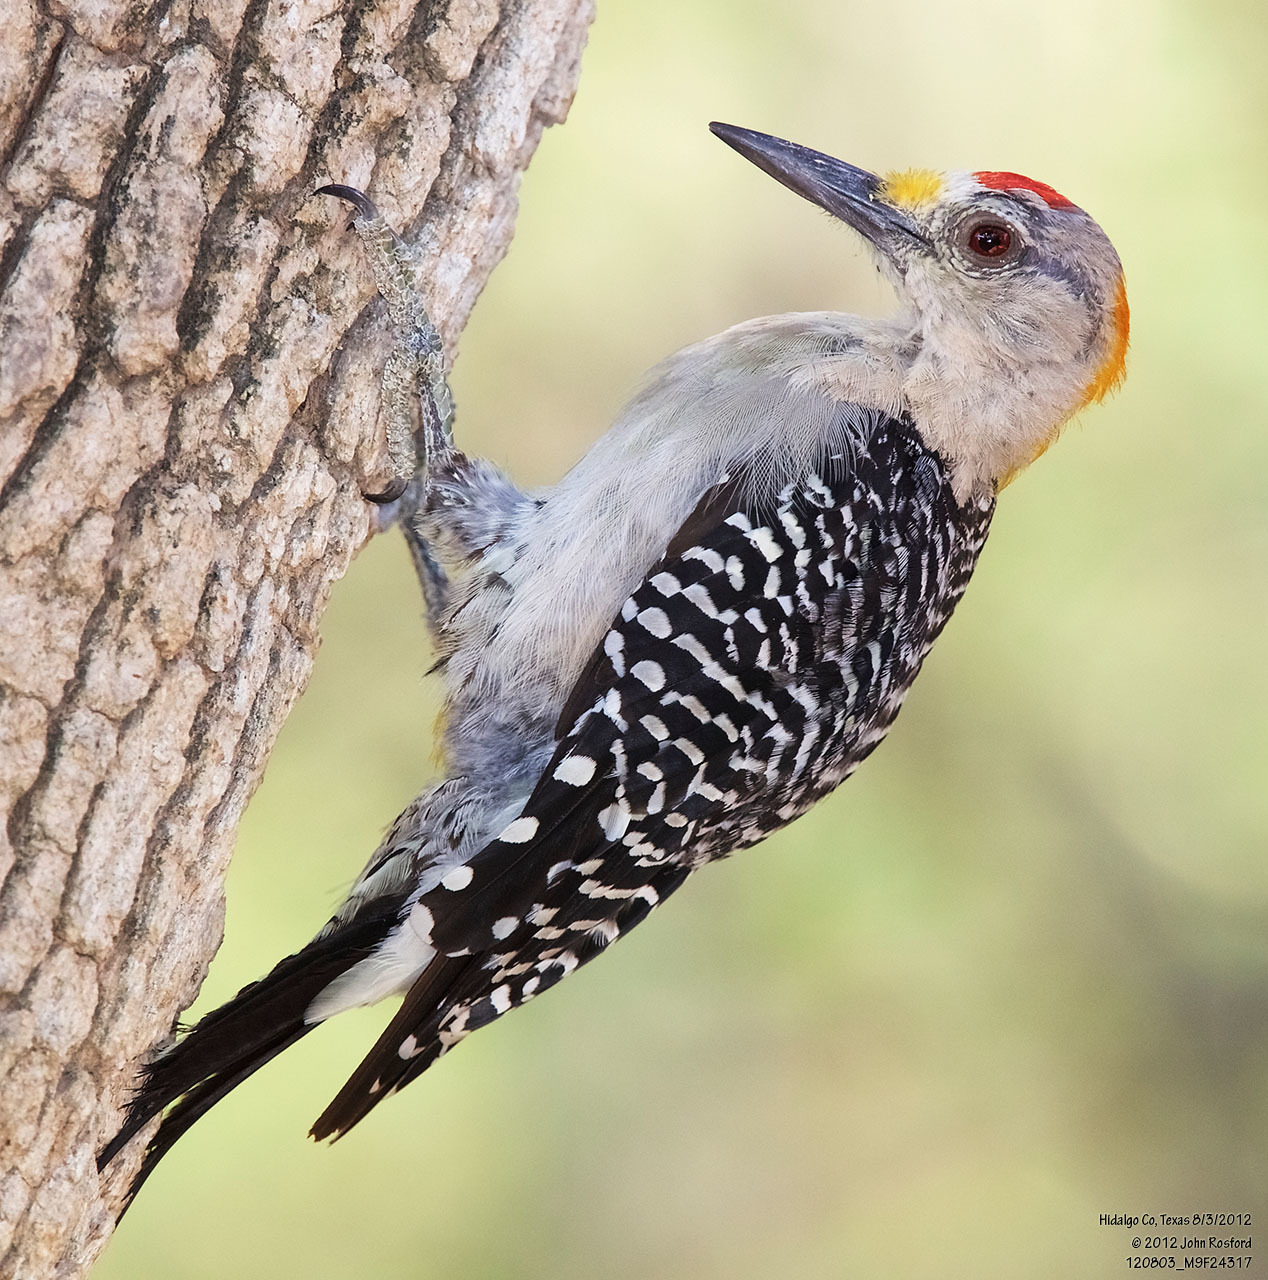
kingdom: Animalia
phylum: Chordata
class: Aves
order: Piciformes
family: Picidae
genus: Melanerpes
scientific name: Melanerpes aurifrons
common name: Golden-fronted woodpecker
